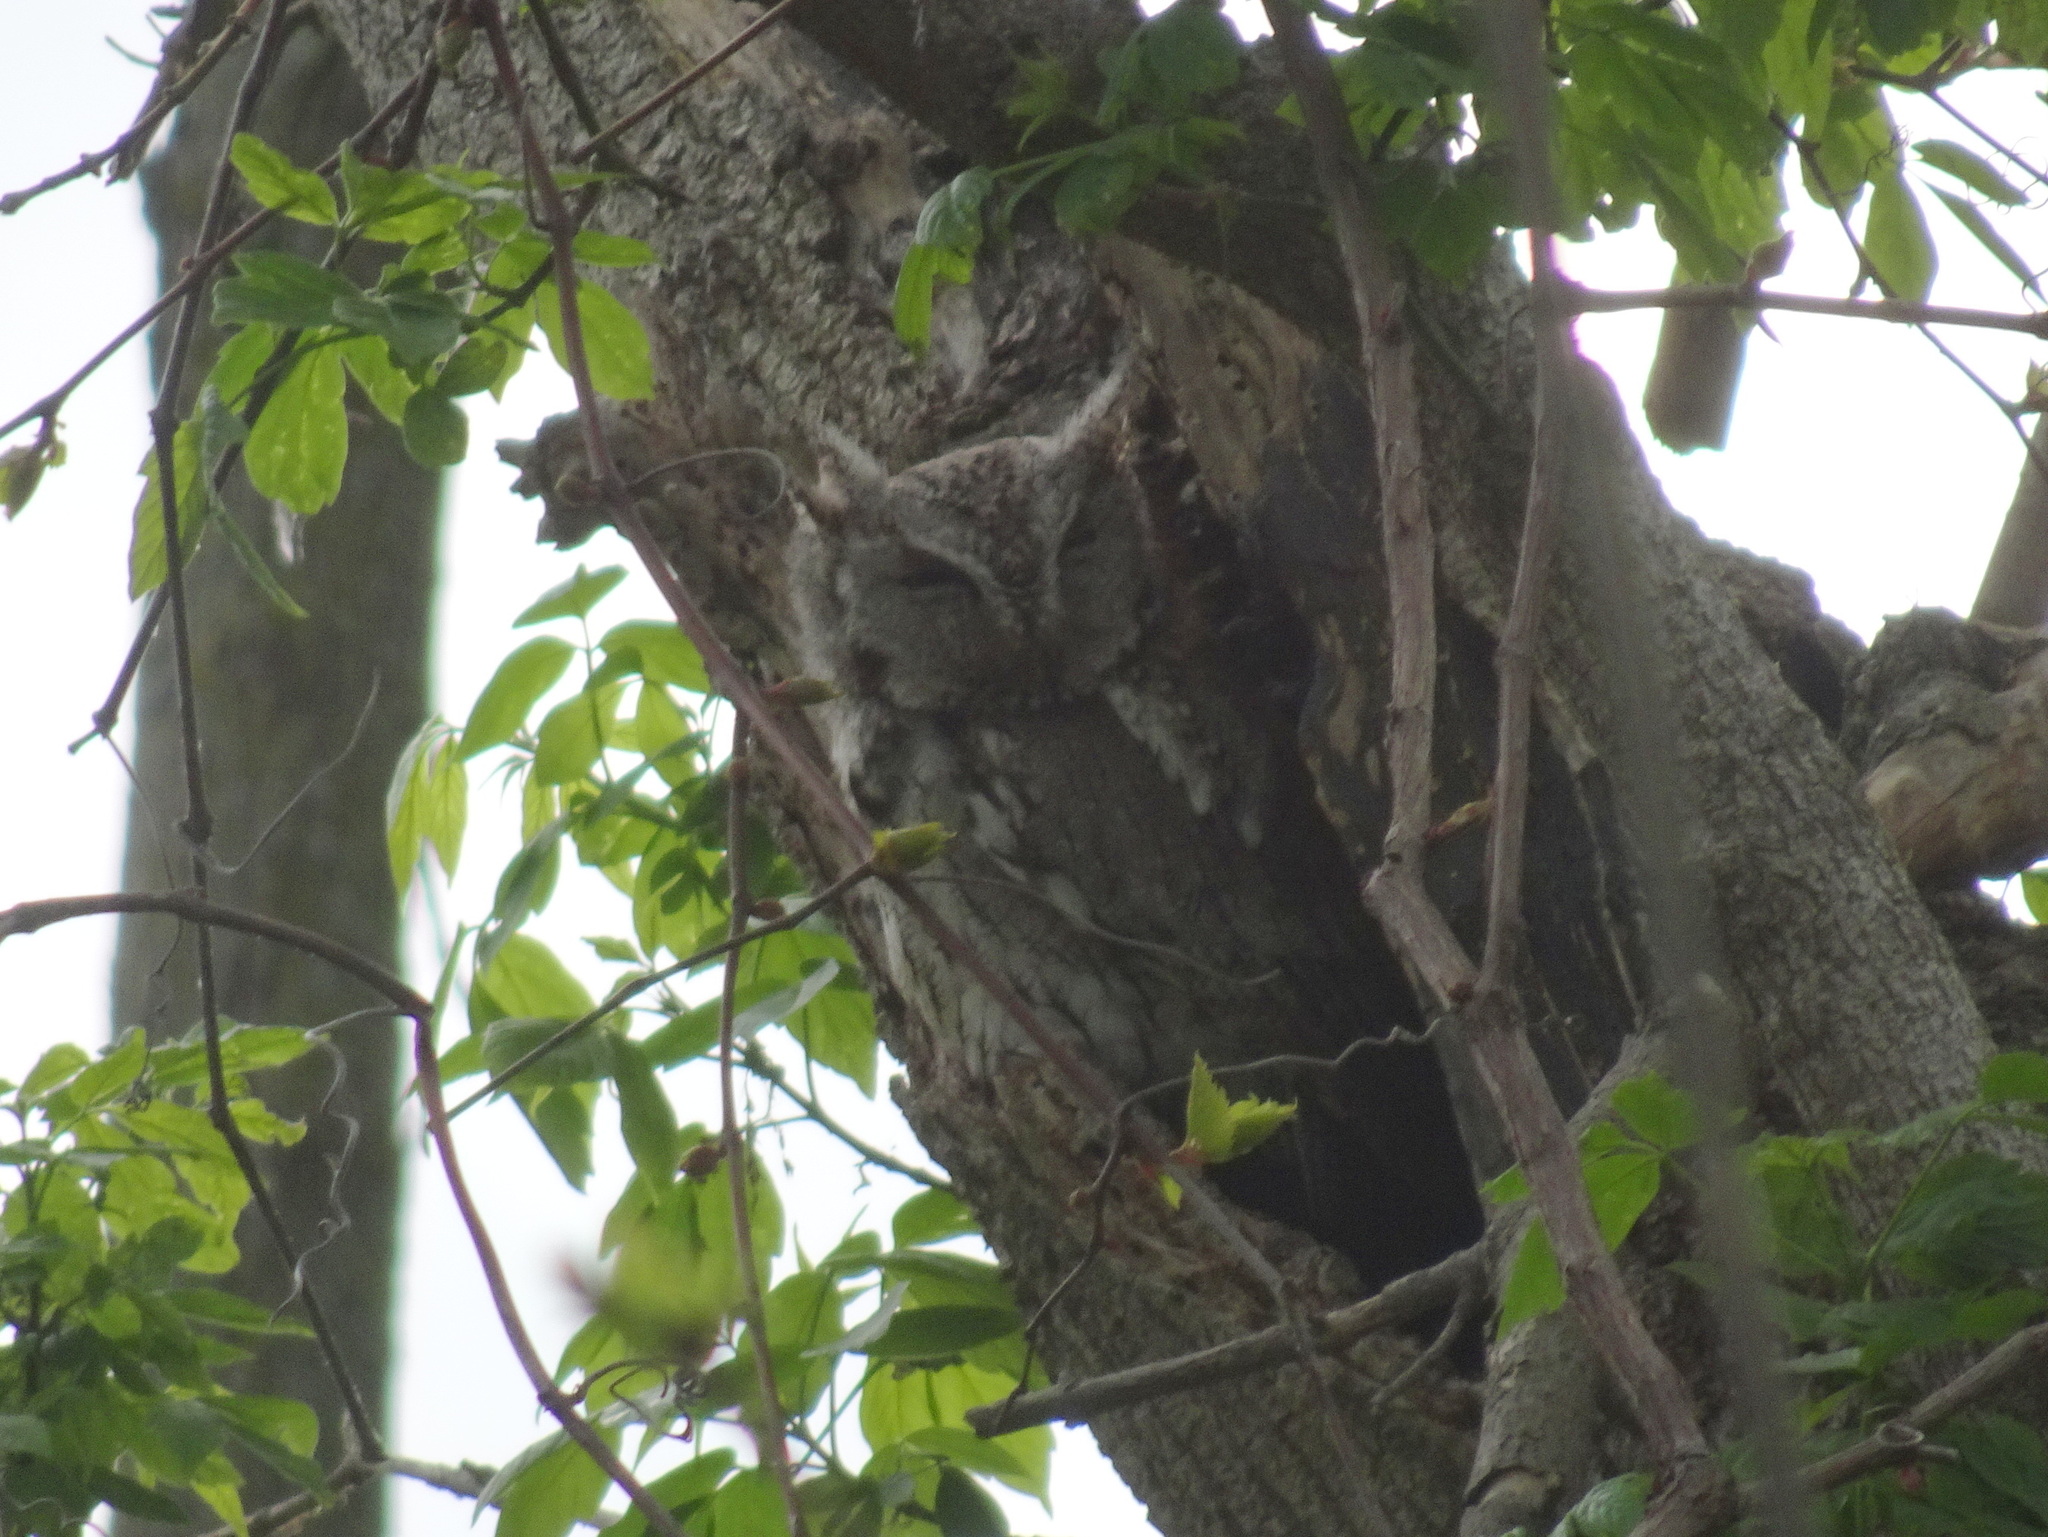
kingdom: Animalia
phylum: Chordata
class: Aves
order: Strigiformes
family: Strigidae
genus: Megascops
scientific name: Megascops asio
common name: Eastern screech-owl
